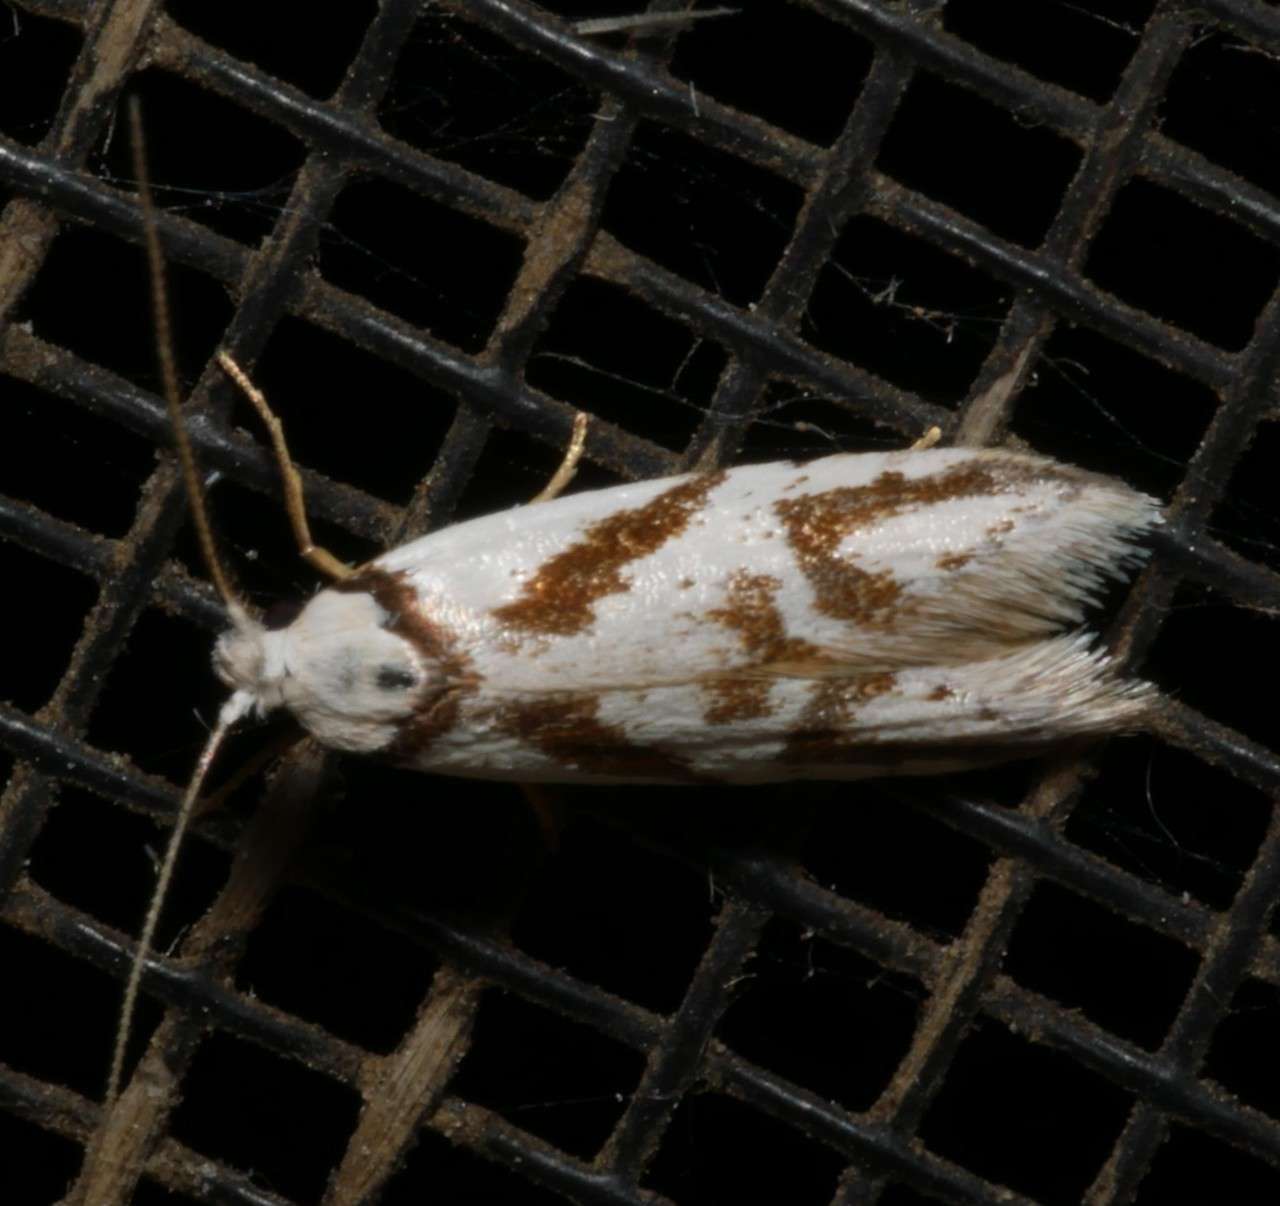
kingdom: Animalia
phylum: Arthropoda
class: Insecta
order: Lepidoptera
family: Oecophoridae
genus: Oxythecta
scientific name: Oxythecta acceptella
